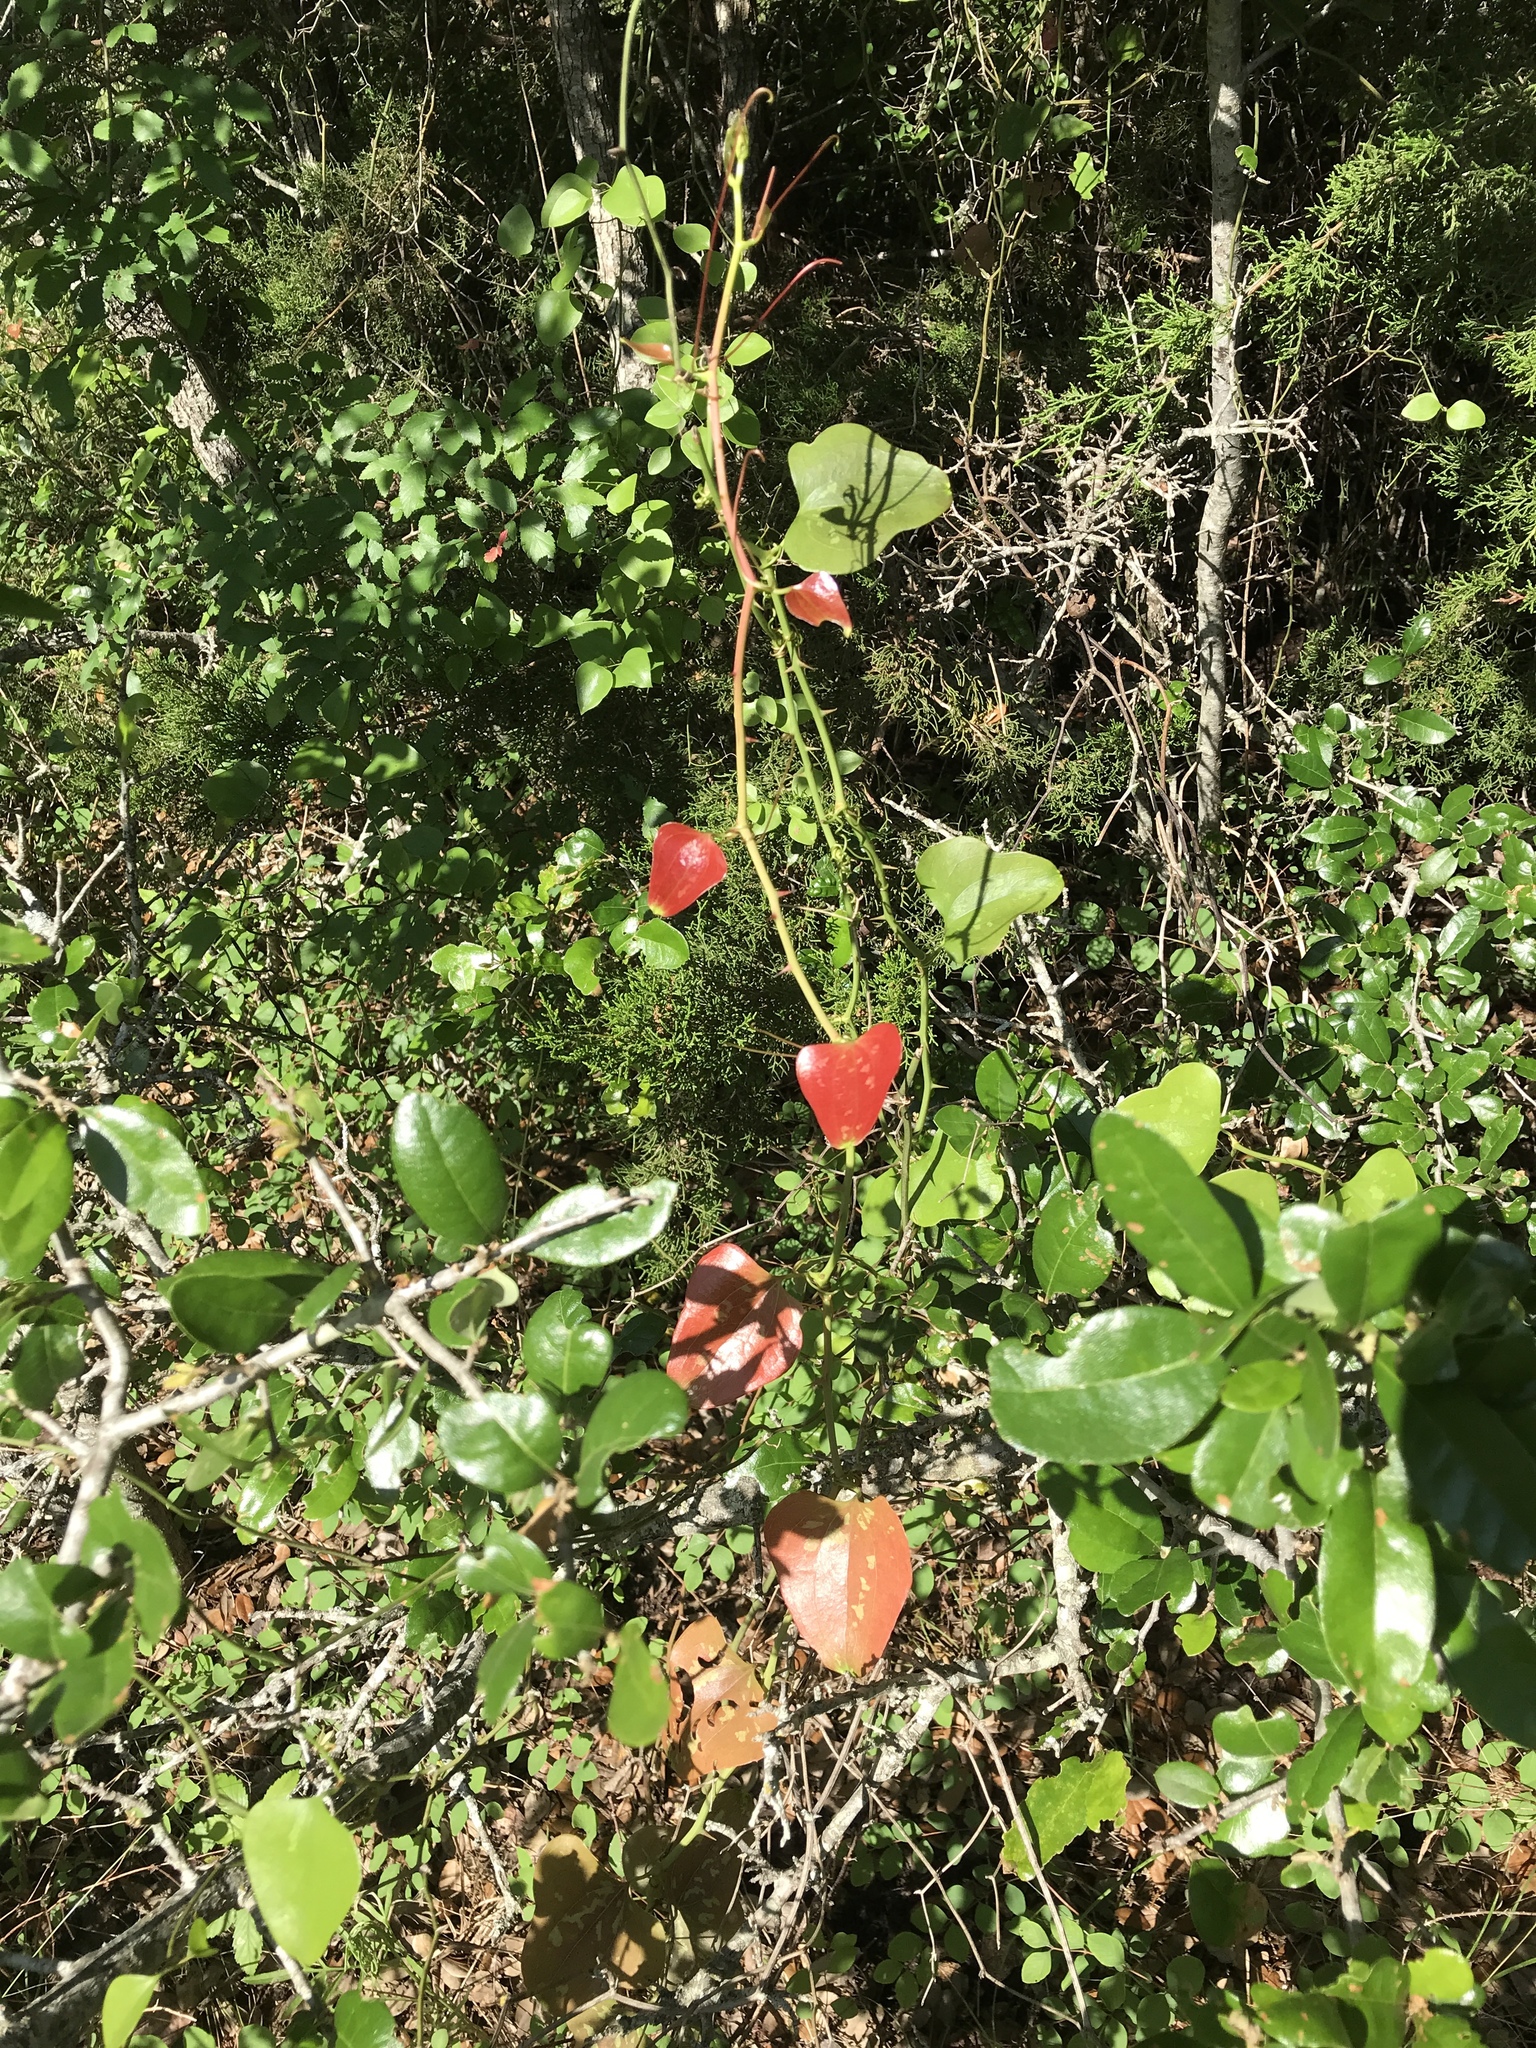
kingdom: Plantae
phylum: Tracheophyta
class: Liliopsida
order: Liliales
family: Smilacaceae
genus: Smilax
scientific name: Smilax bona-nox
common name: Catbrier
